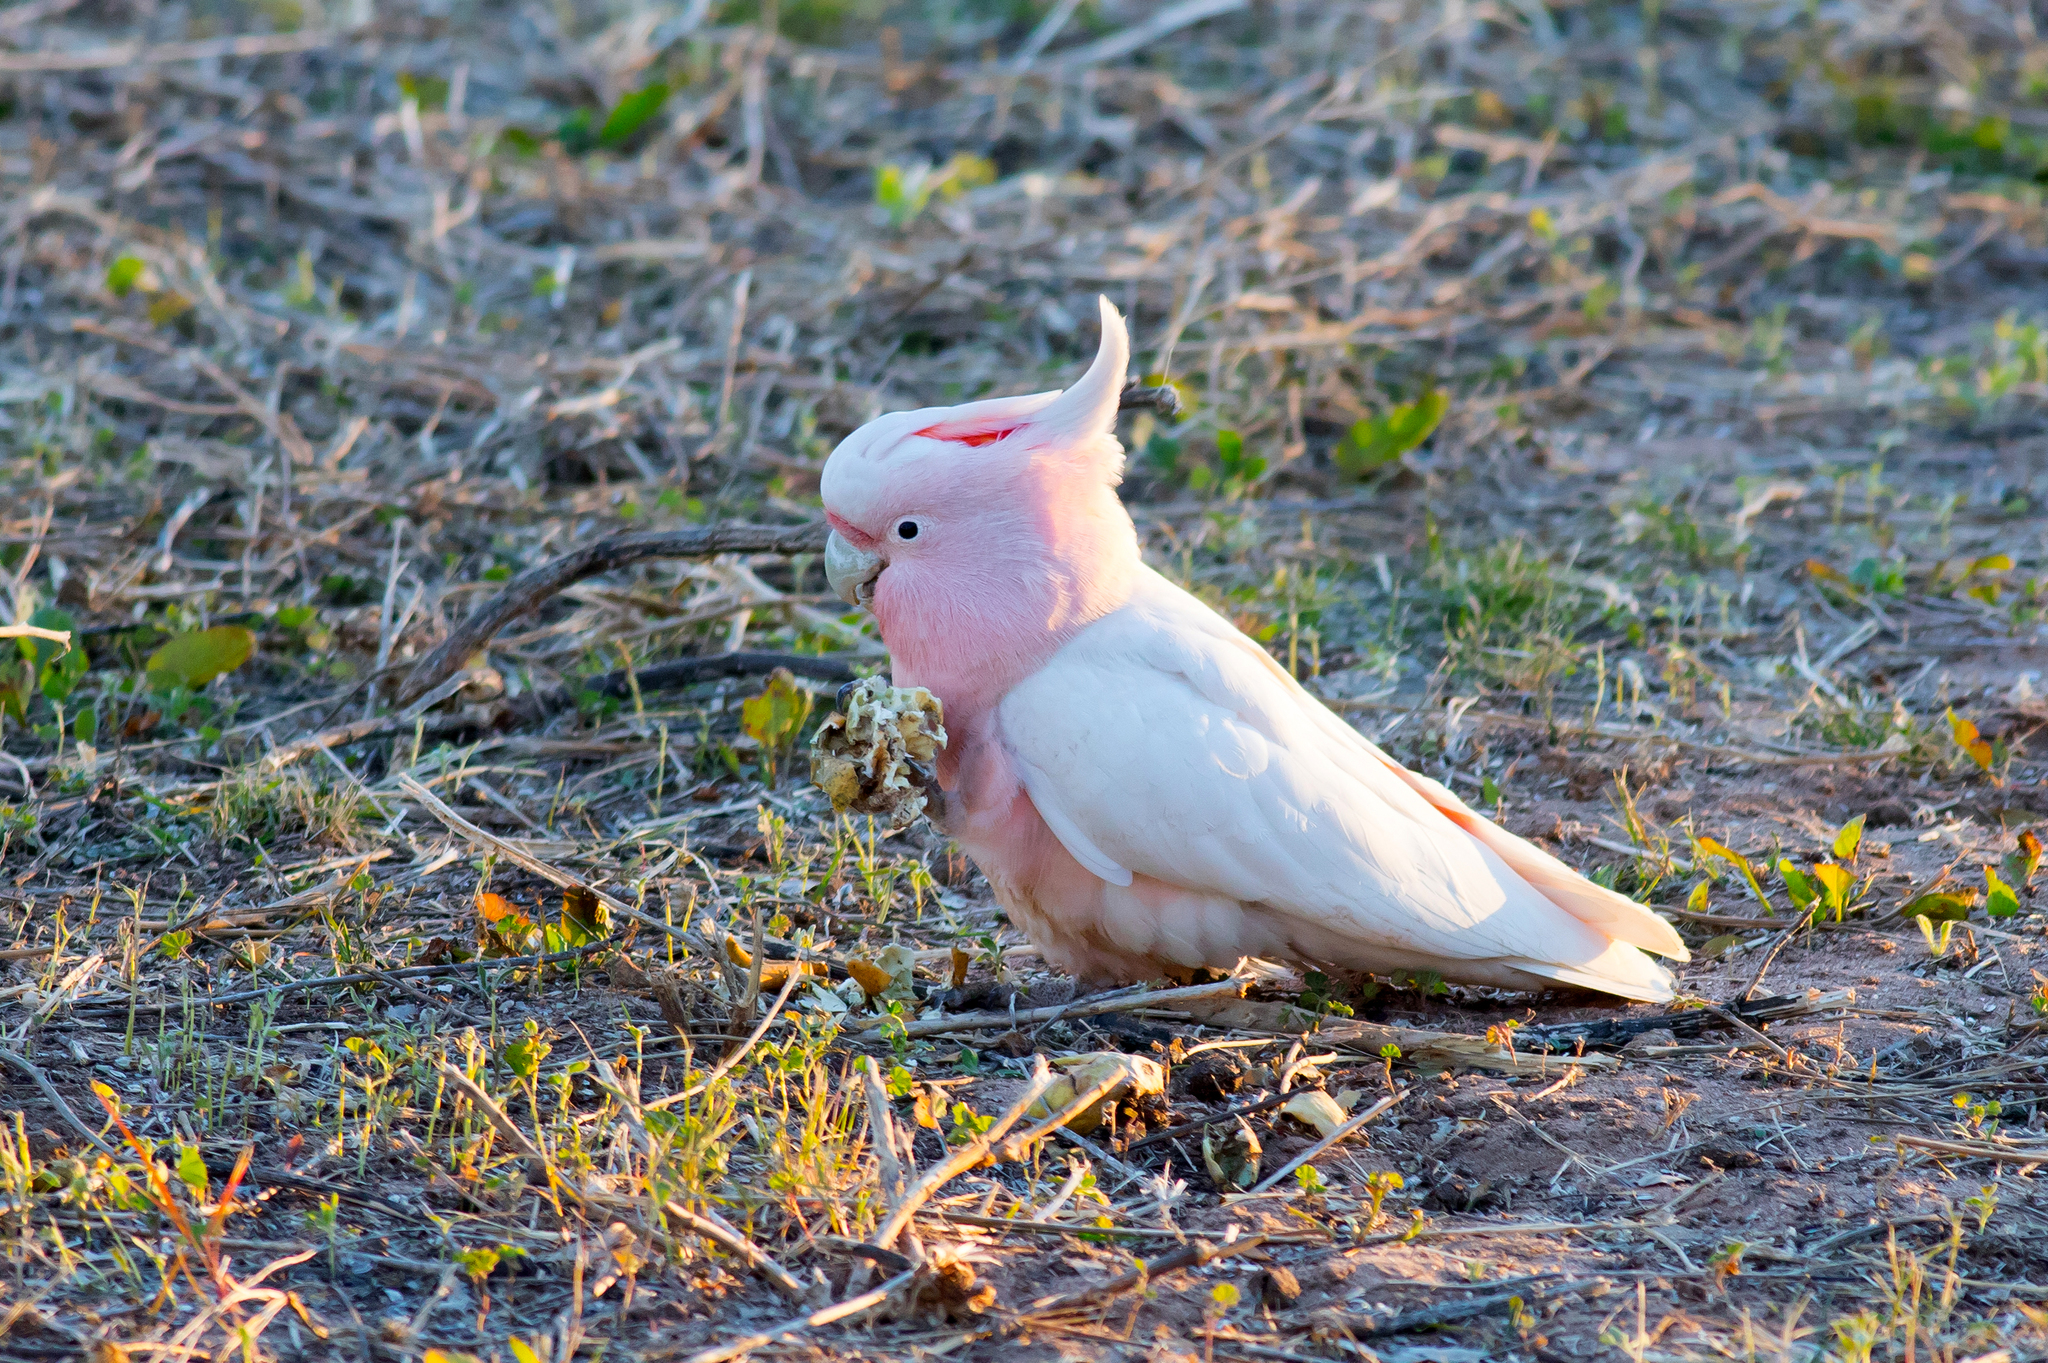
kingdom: Animalia
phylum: Chordata
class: Aves
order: Psittaciformes
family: Psittacidae
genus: Cacatua
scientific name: Cacatua leadbeateri
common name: Major mitchell's cockatoo
